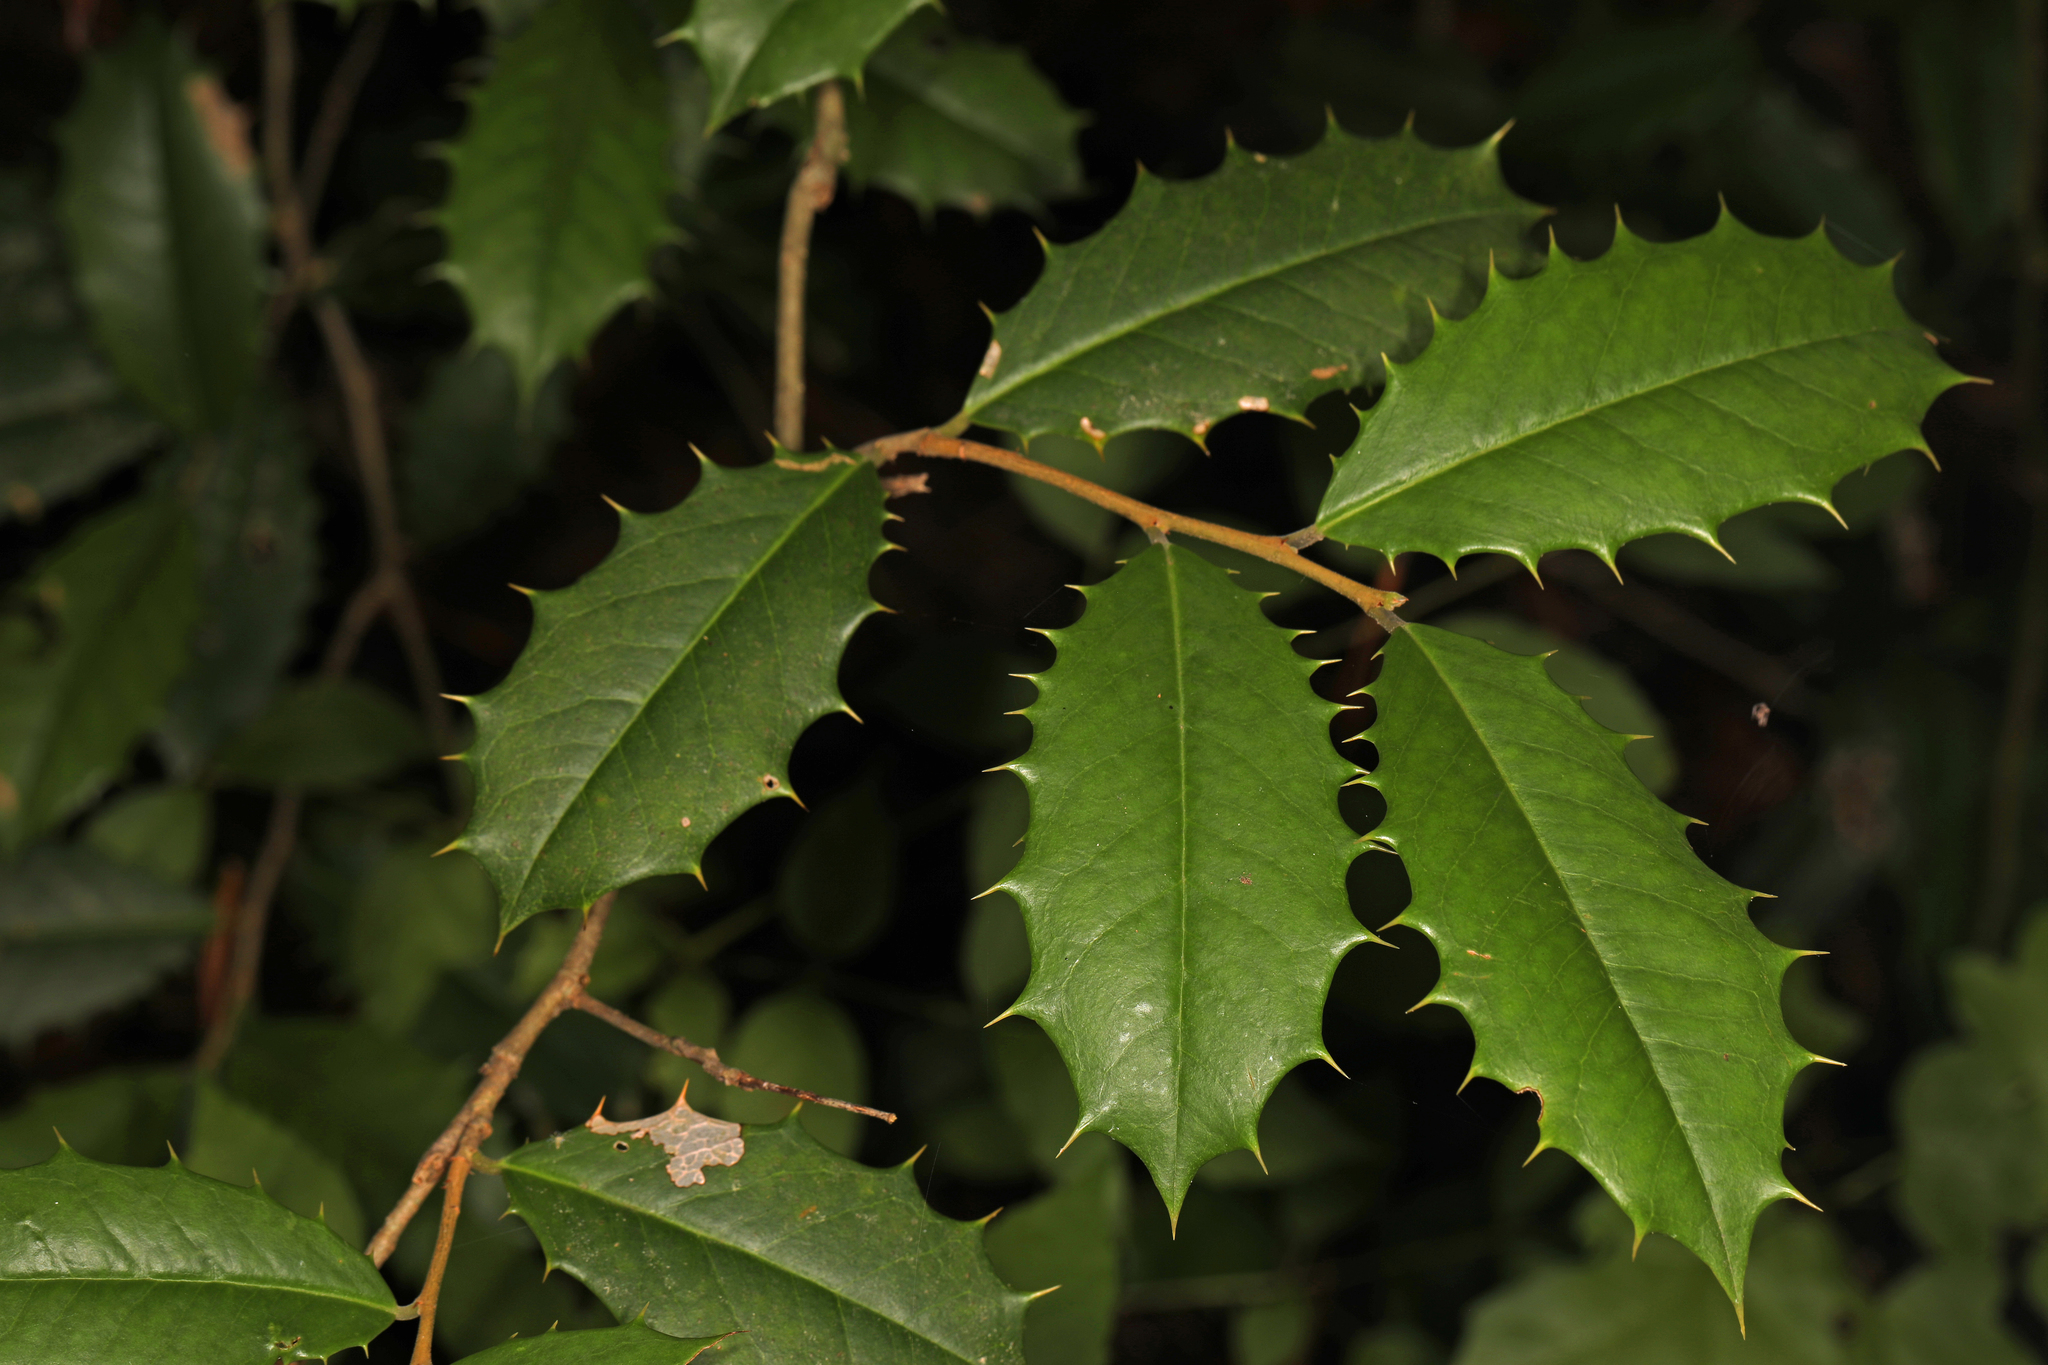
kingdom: Plantae
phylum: Tracheophyta
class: Magnoliopsida
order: Aquifoliales
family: Aquifoliaceae
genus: Ilex
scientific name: Ilex opaca
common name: American holly
